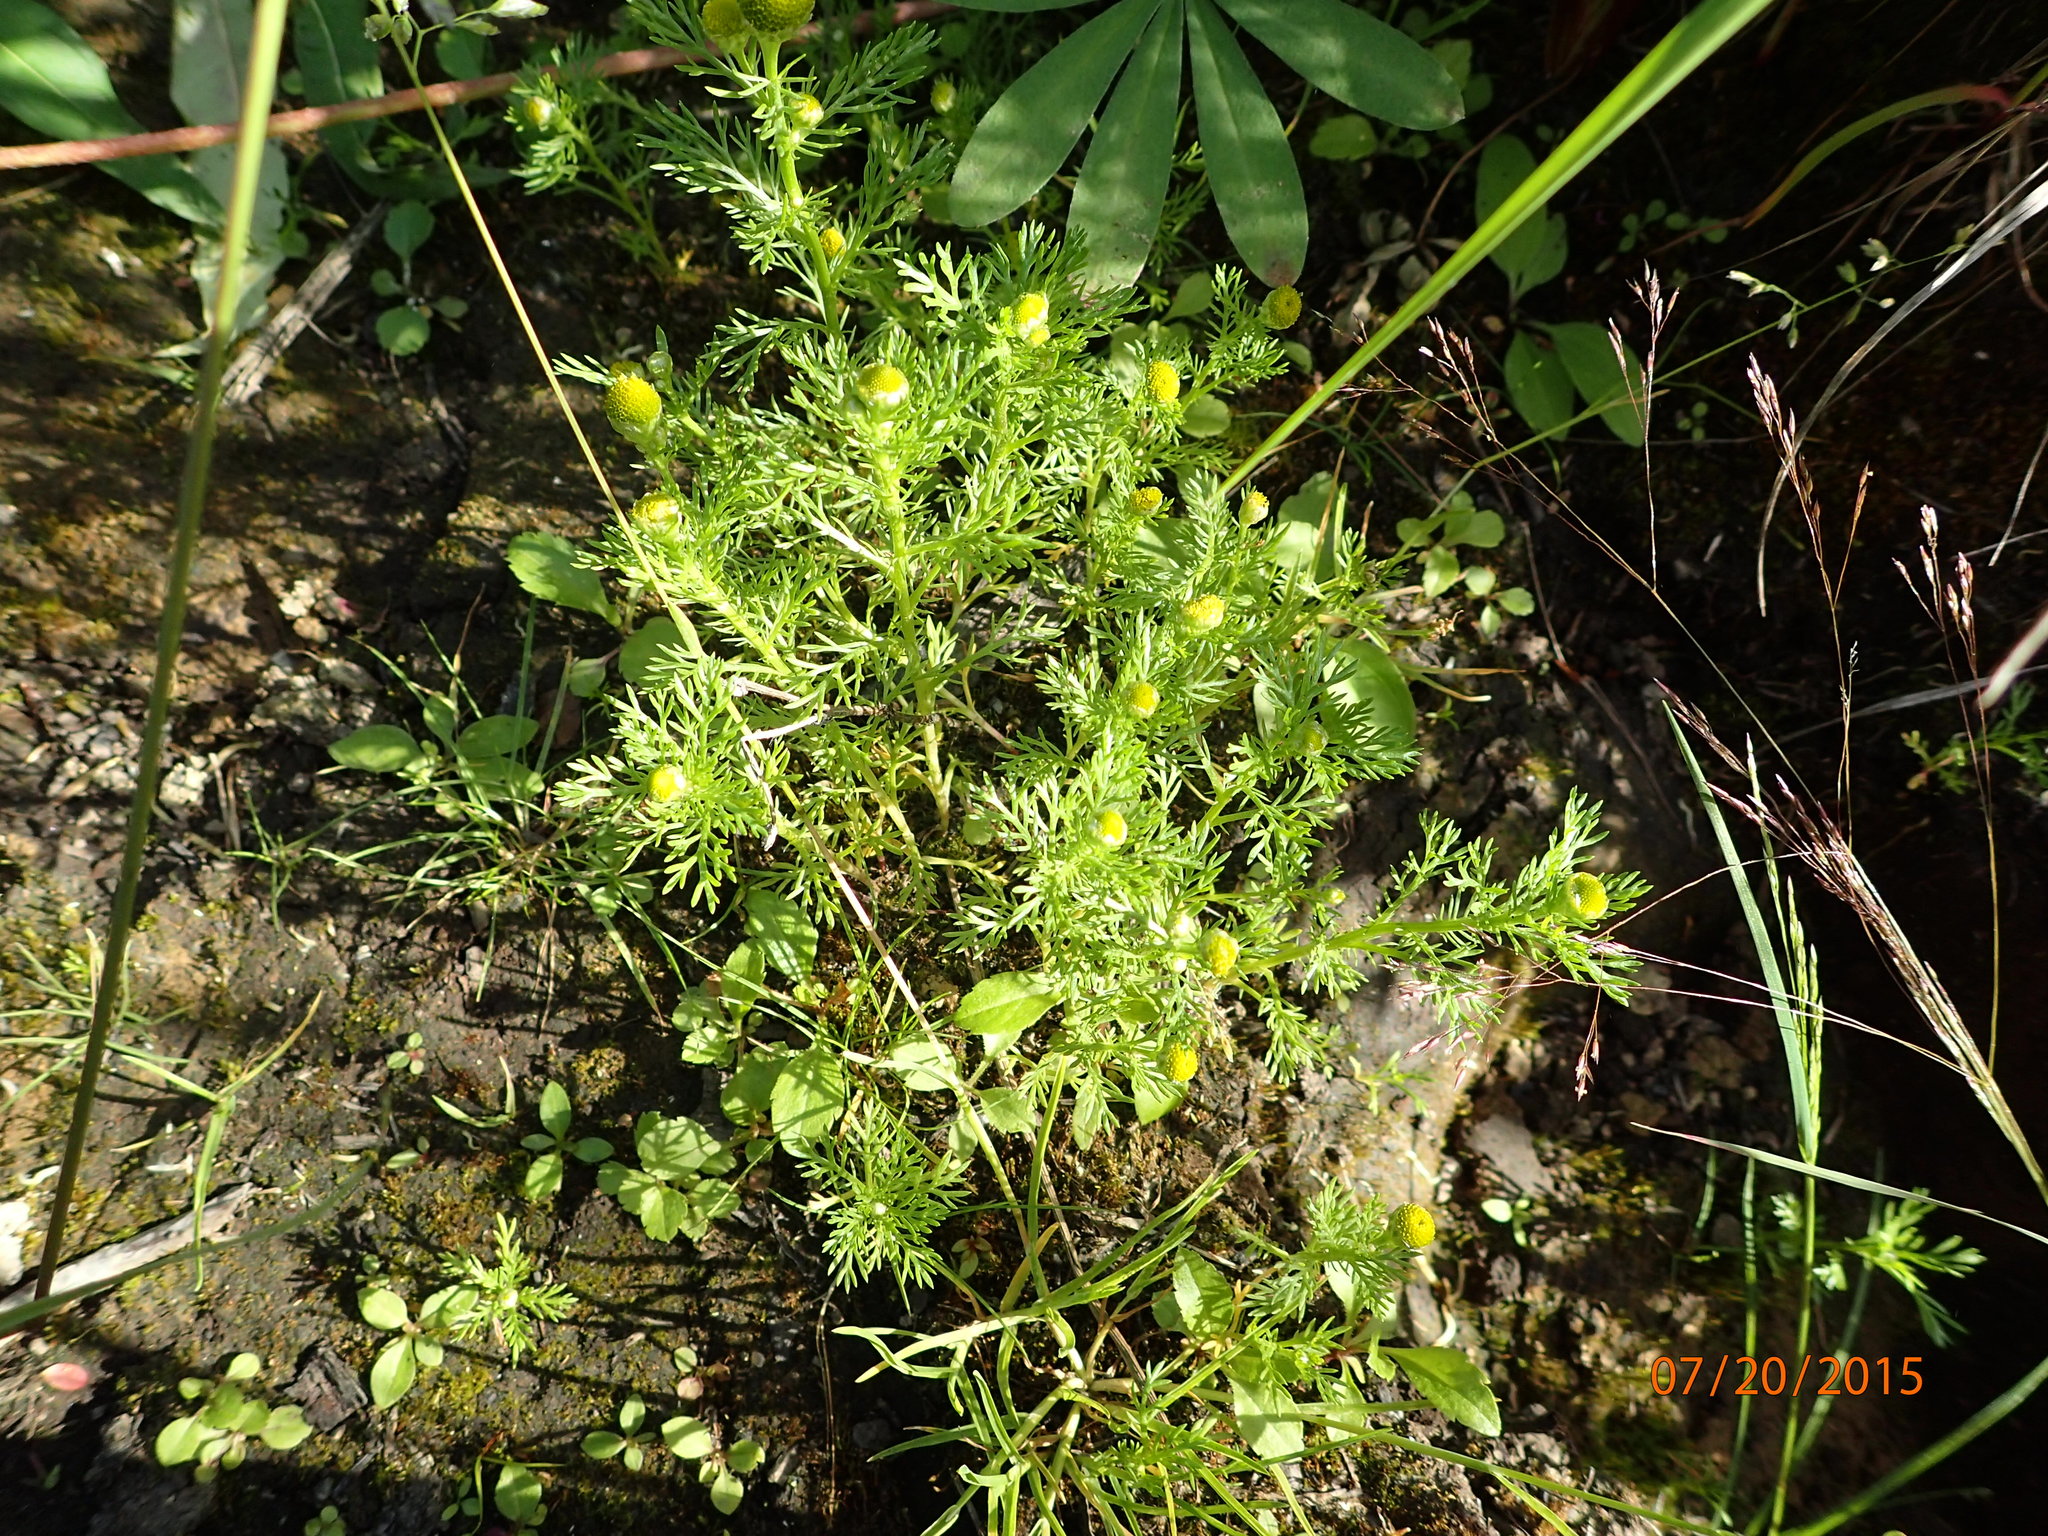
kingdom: Plantae
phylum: Tracheophyta
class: Magnoliopsida
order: Asterales
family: Asteraceae
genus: Matricaria
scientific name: Matricaria discoidea
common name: Disc mayweed
